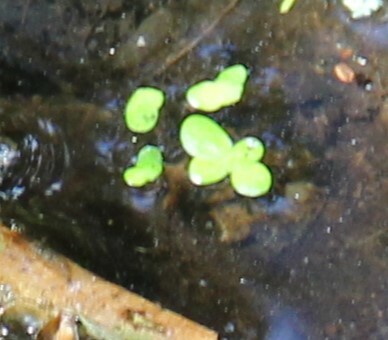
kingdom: Plantae
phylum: Tracheophyta
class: Liliopsida
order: Alismatales
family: Araceae
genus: Spirodela
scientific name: Spirodela polyrhiza
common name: Great duckweed
